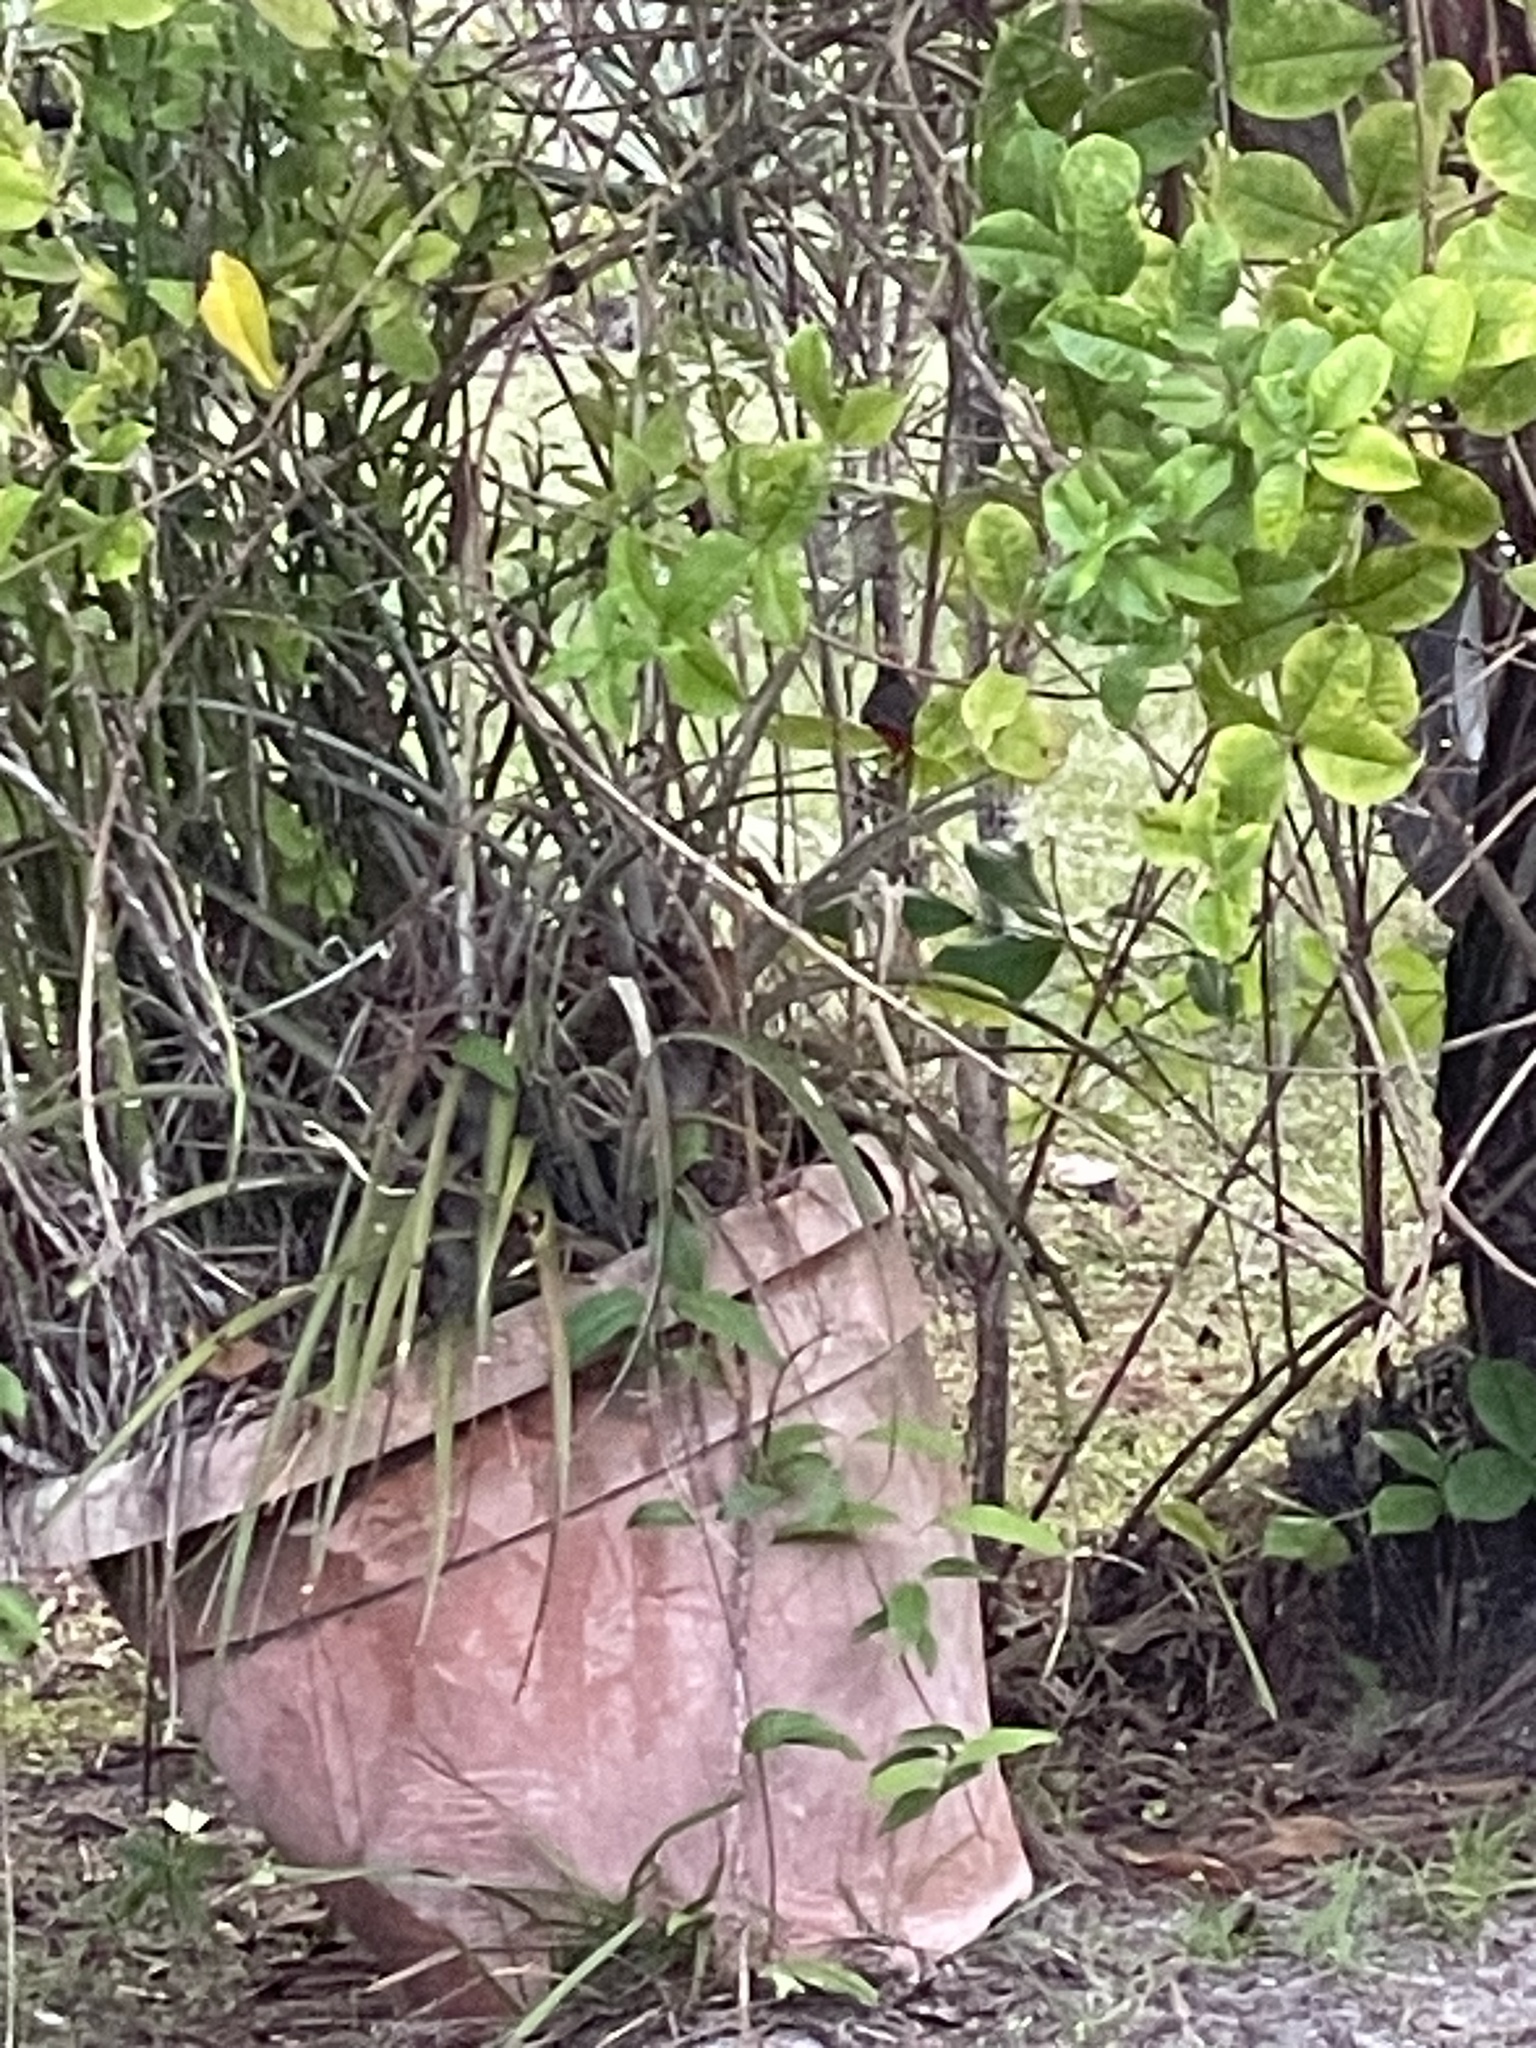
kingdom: Animalia
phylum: Chordata
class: Aves
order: Passeriformes
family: Tyrannidae
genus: Pyrocephalus
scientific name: Pyrocephalus rubinus
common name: Vermilion flycatcher
